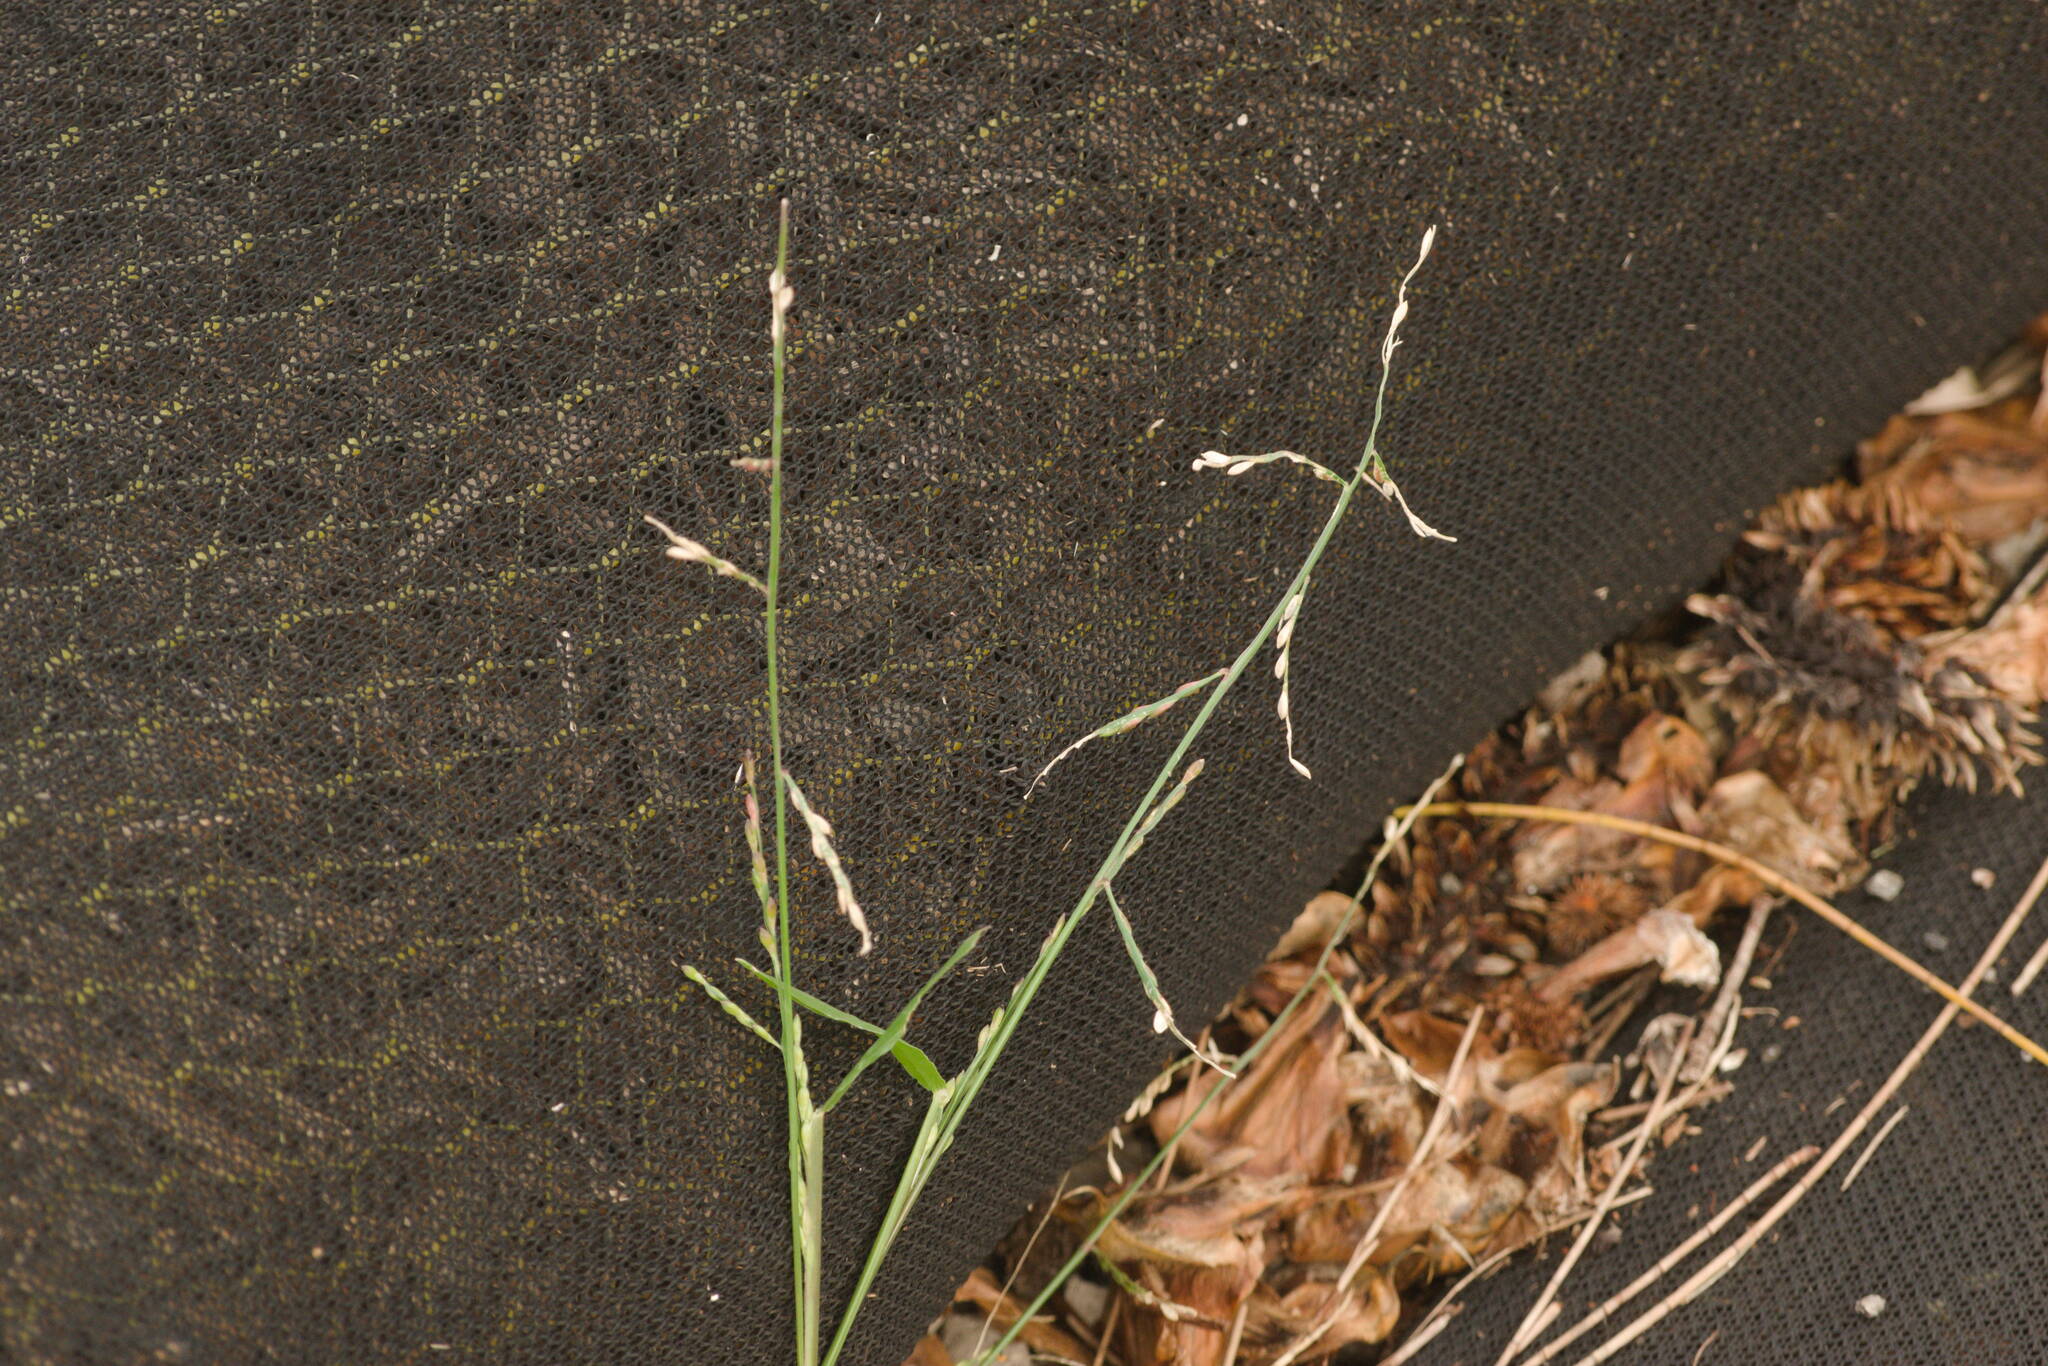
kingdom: Plantae
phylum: Tracheophyta
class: Liliopsida
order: Poales
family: Poaceae
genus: Urochloa
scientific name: Urochloa distachyos
